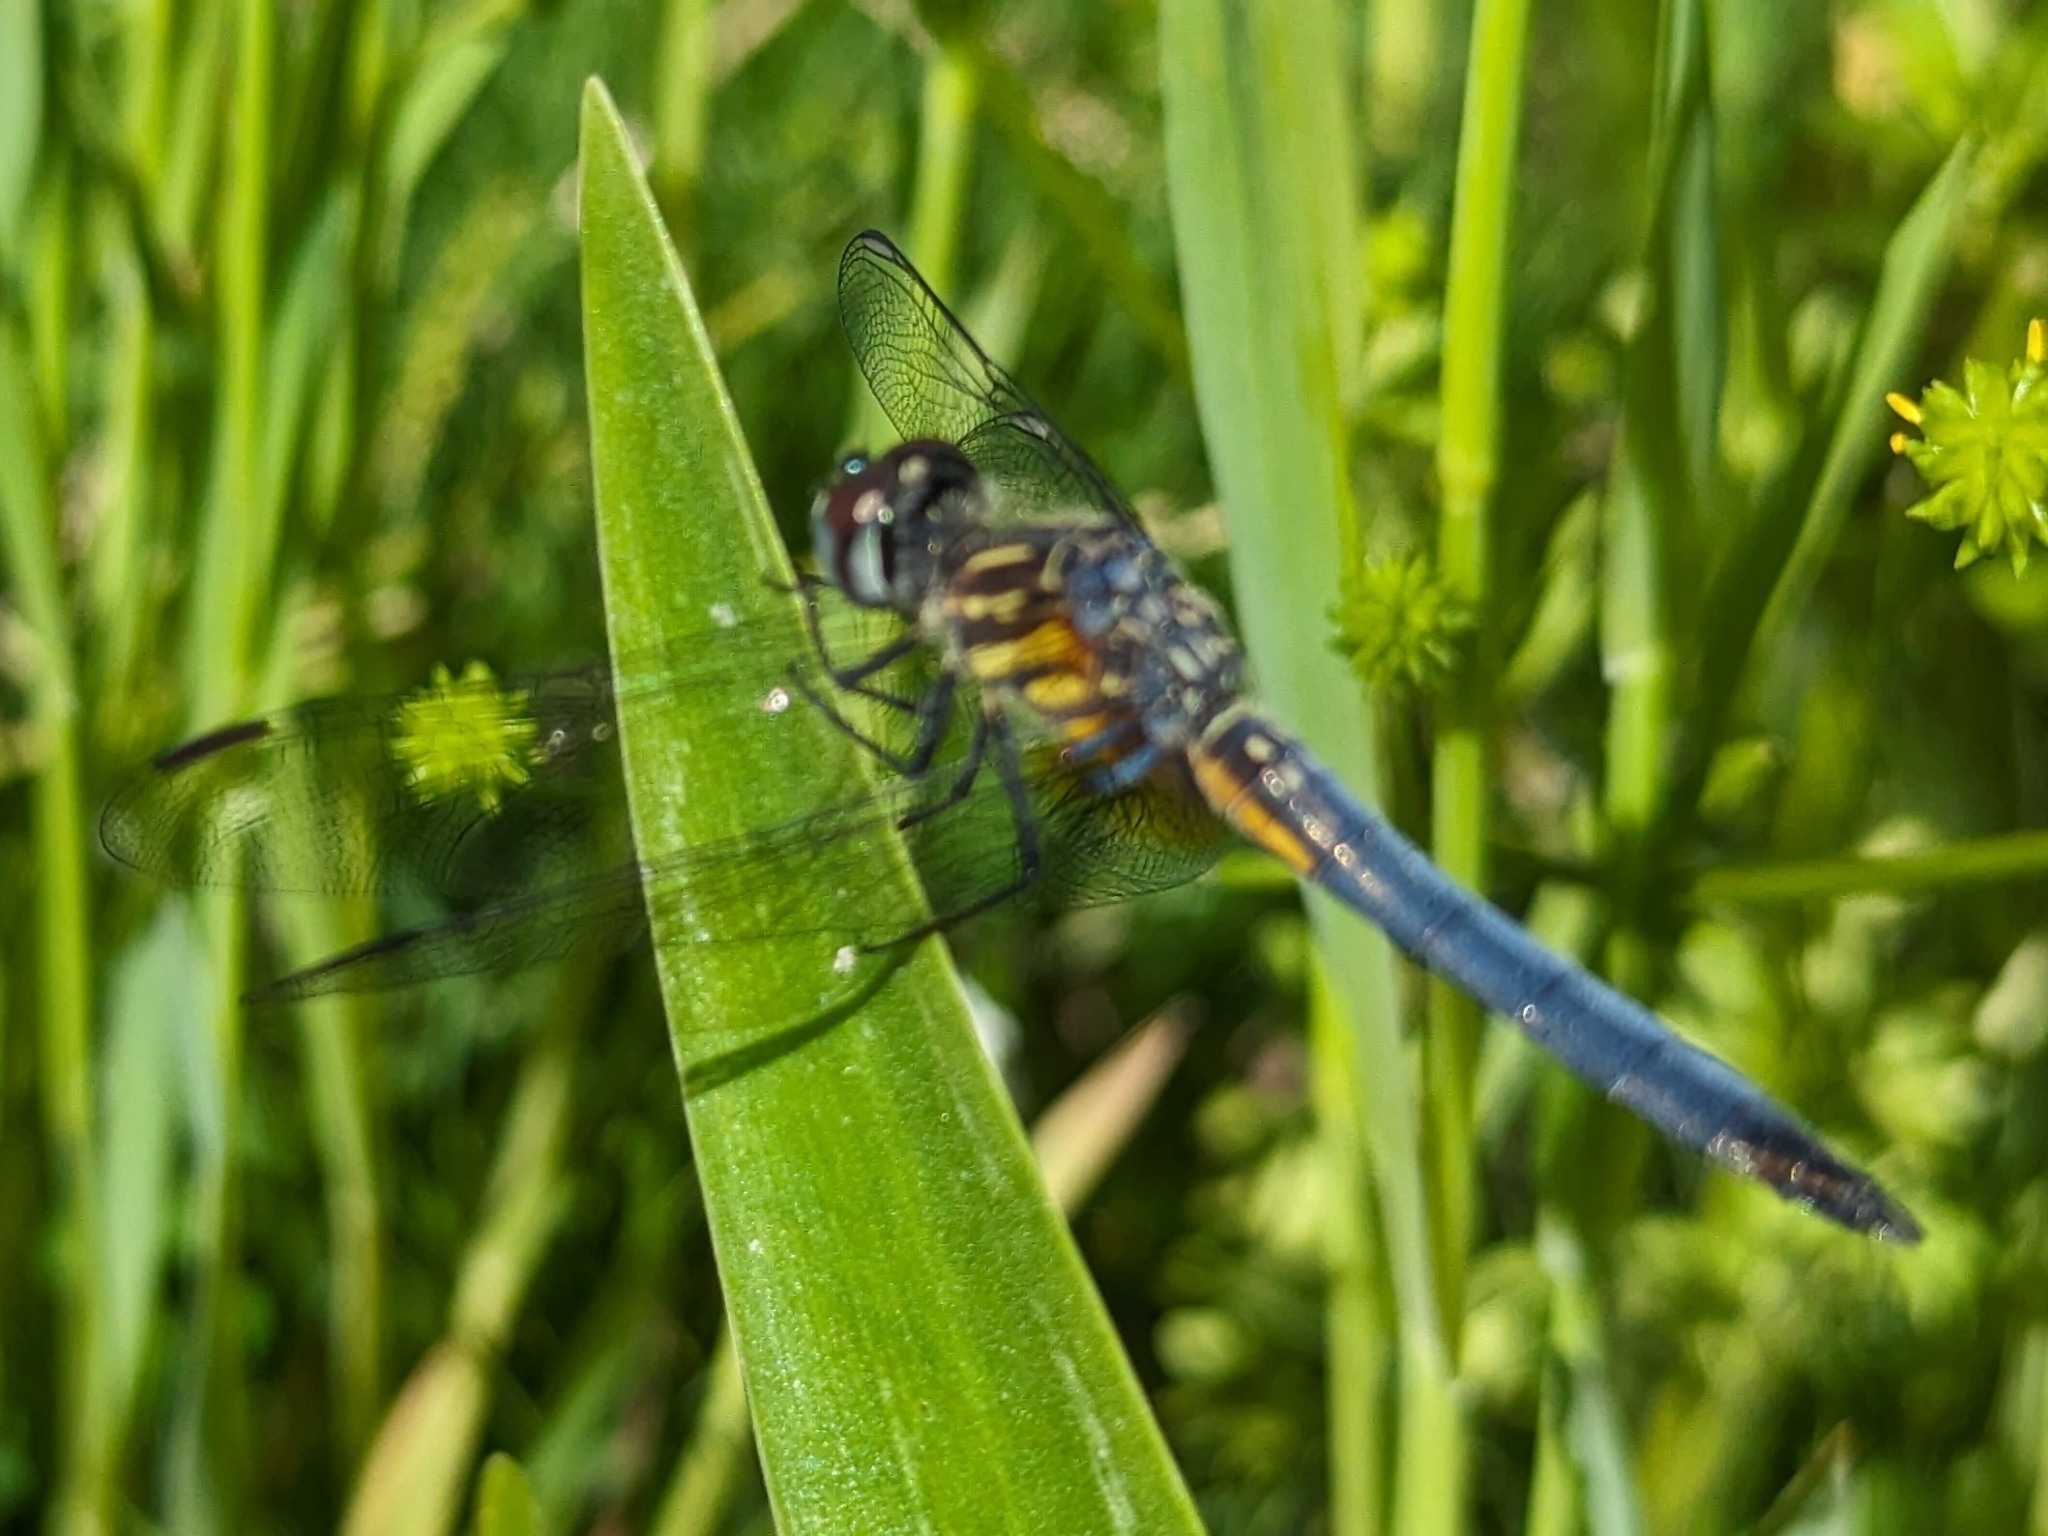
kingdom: Animalia
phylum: Arthropoda
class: Insecta
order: Odonata
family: Libellulidae
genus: Pachydiplax
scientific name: Pachydiplax longipennis
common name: Blue dasher
